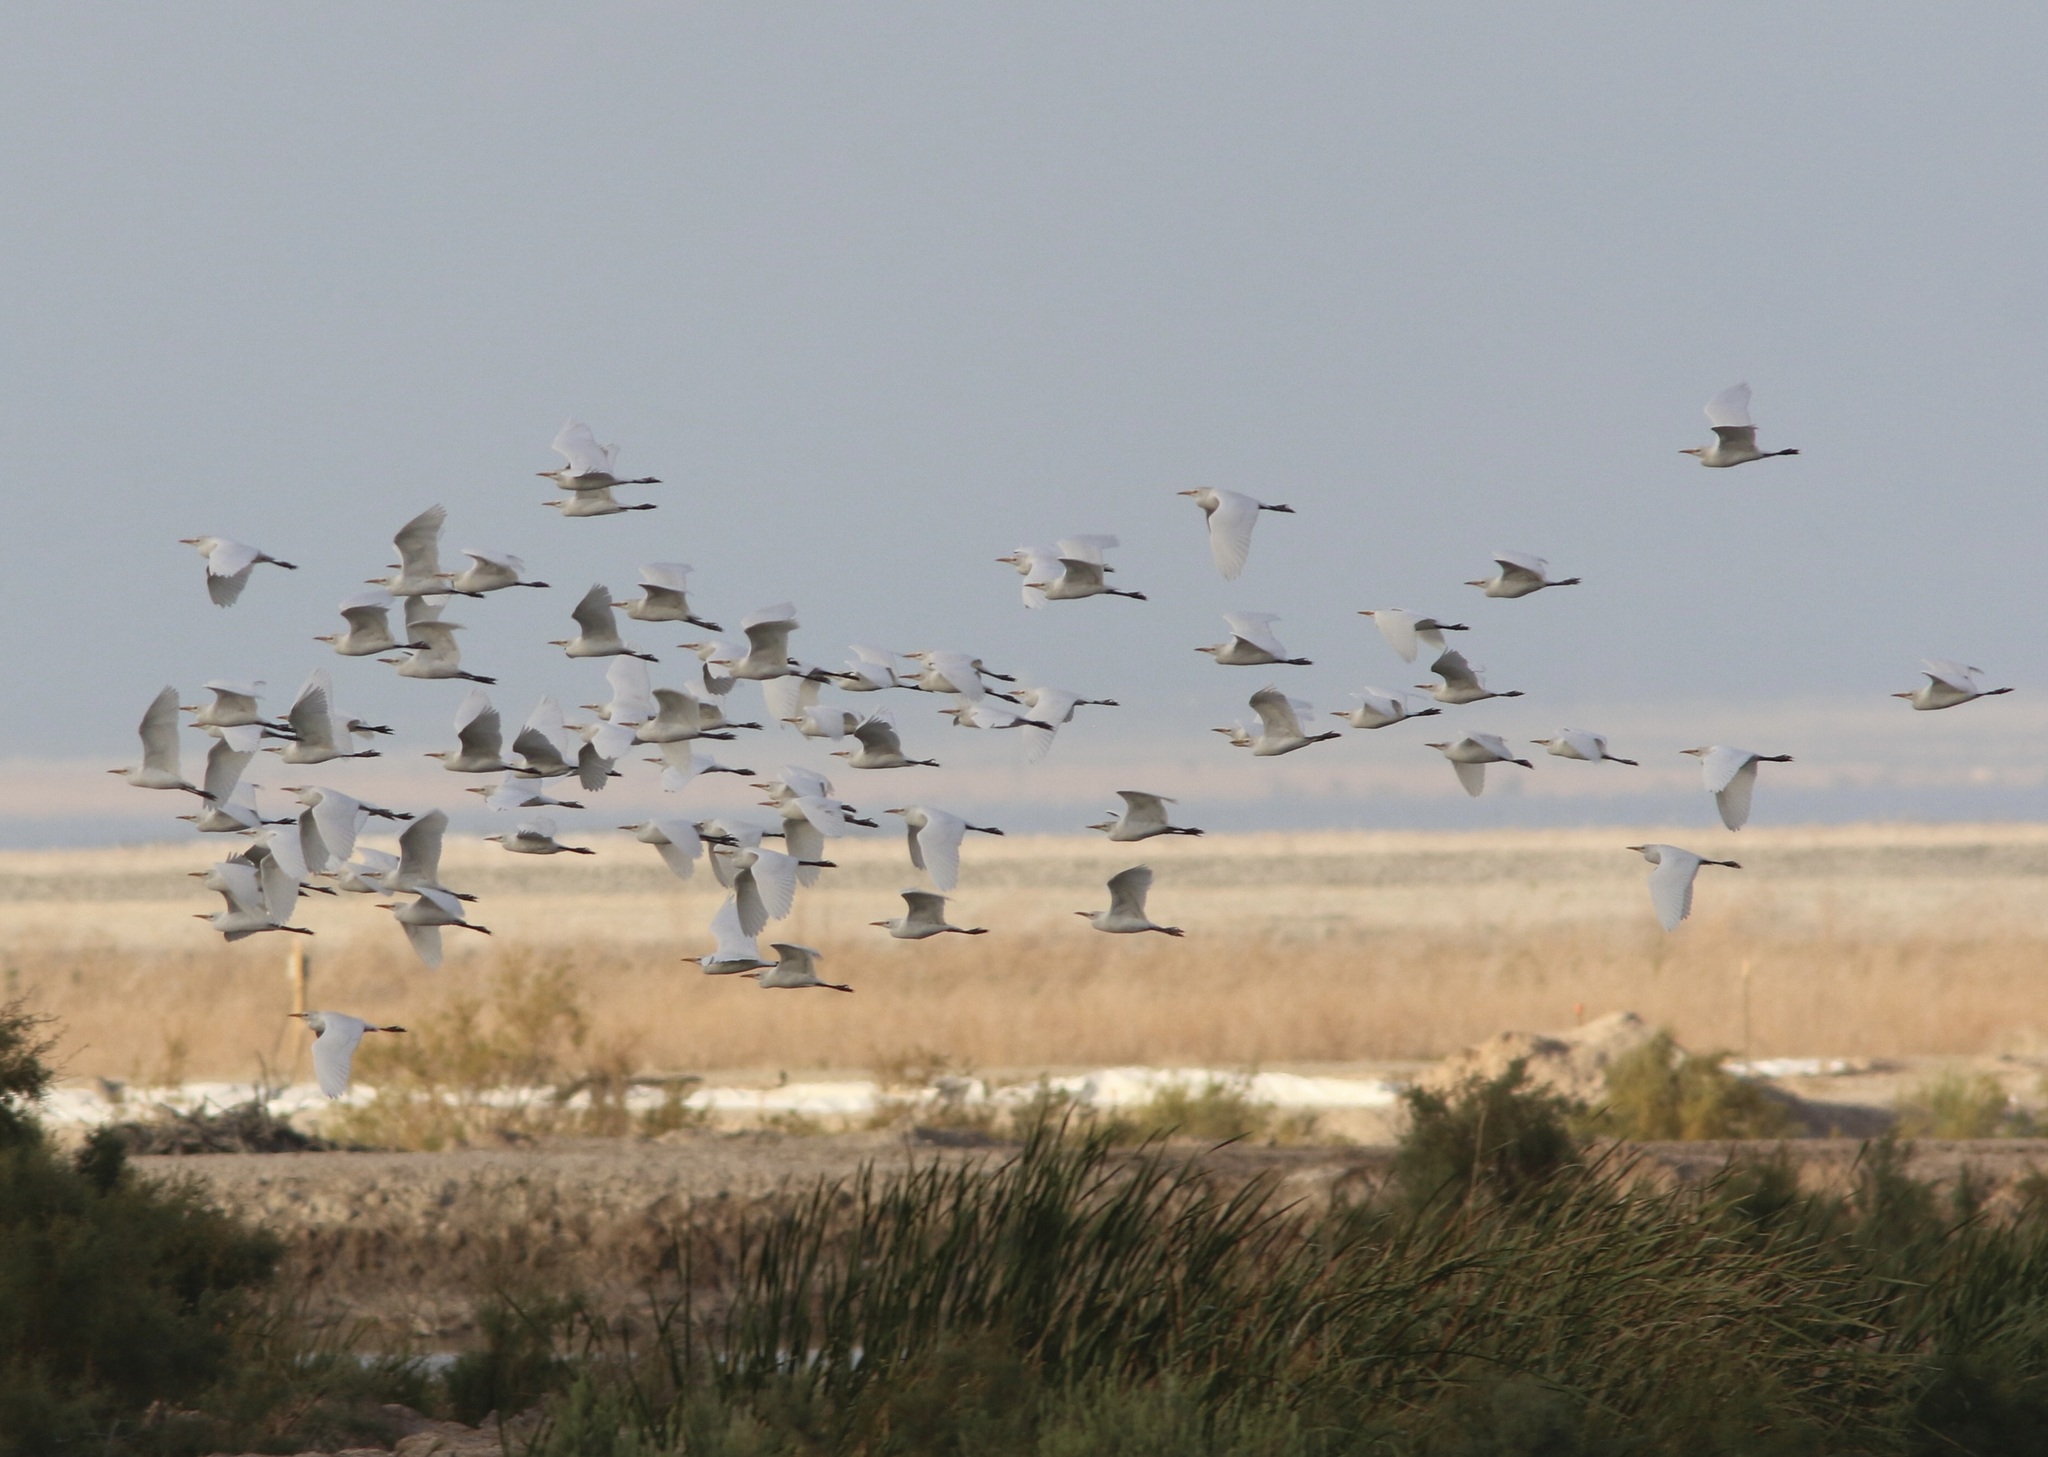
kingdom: Animalia
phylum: Chordata
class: Aves
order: Pelecaniformes
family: Ardeidae
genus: Bubulcus
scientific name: Bubulcus ibis
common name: Cattle egret
